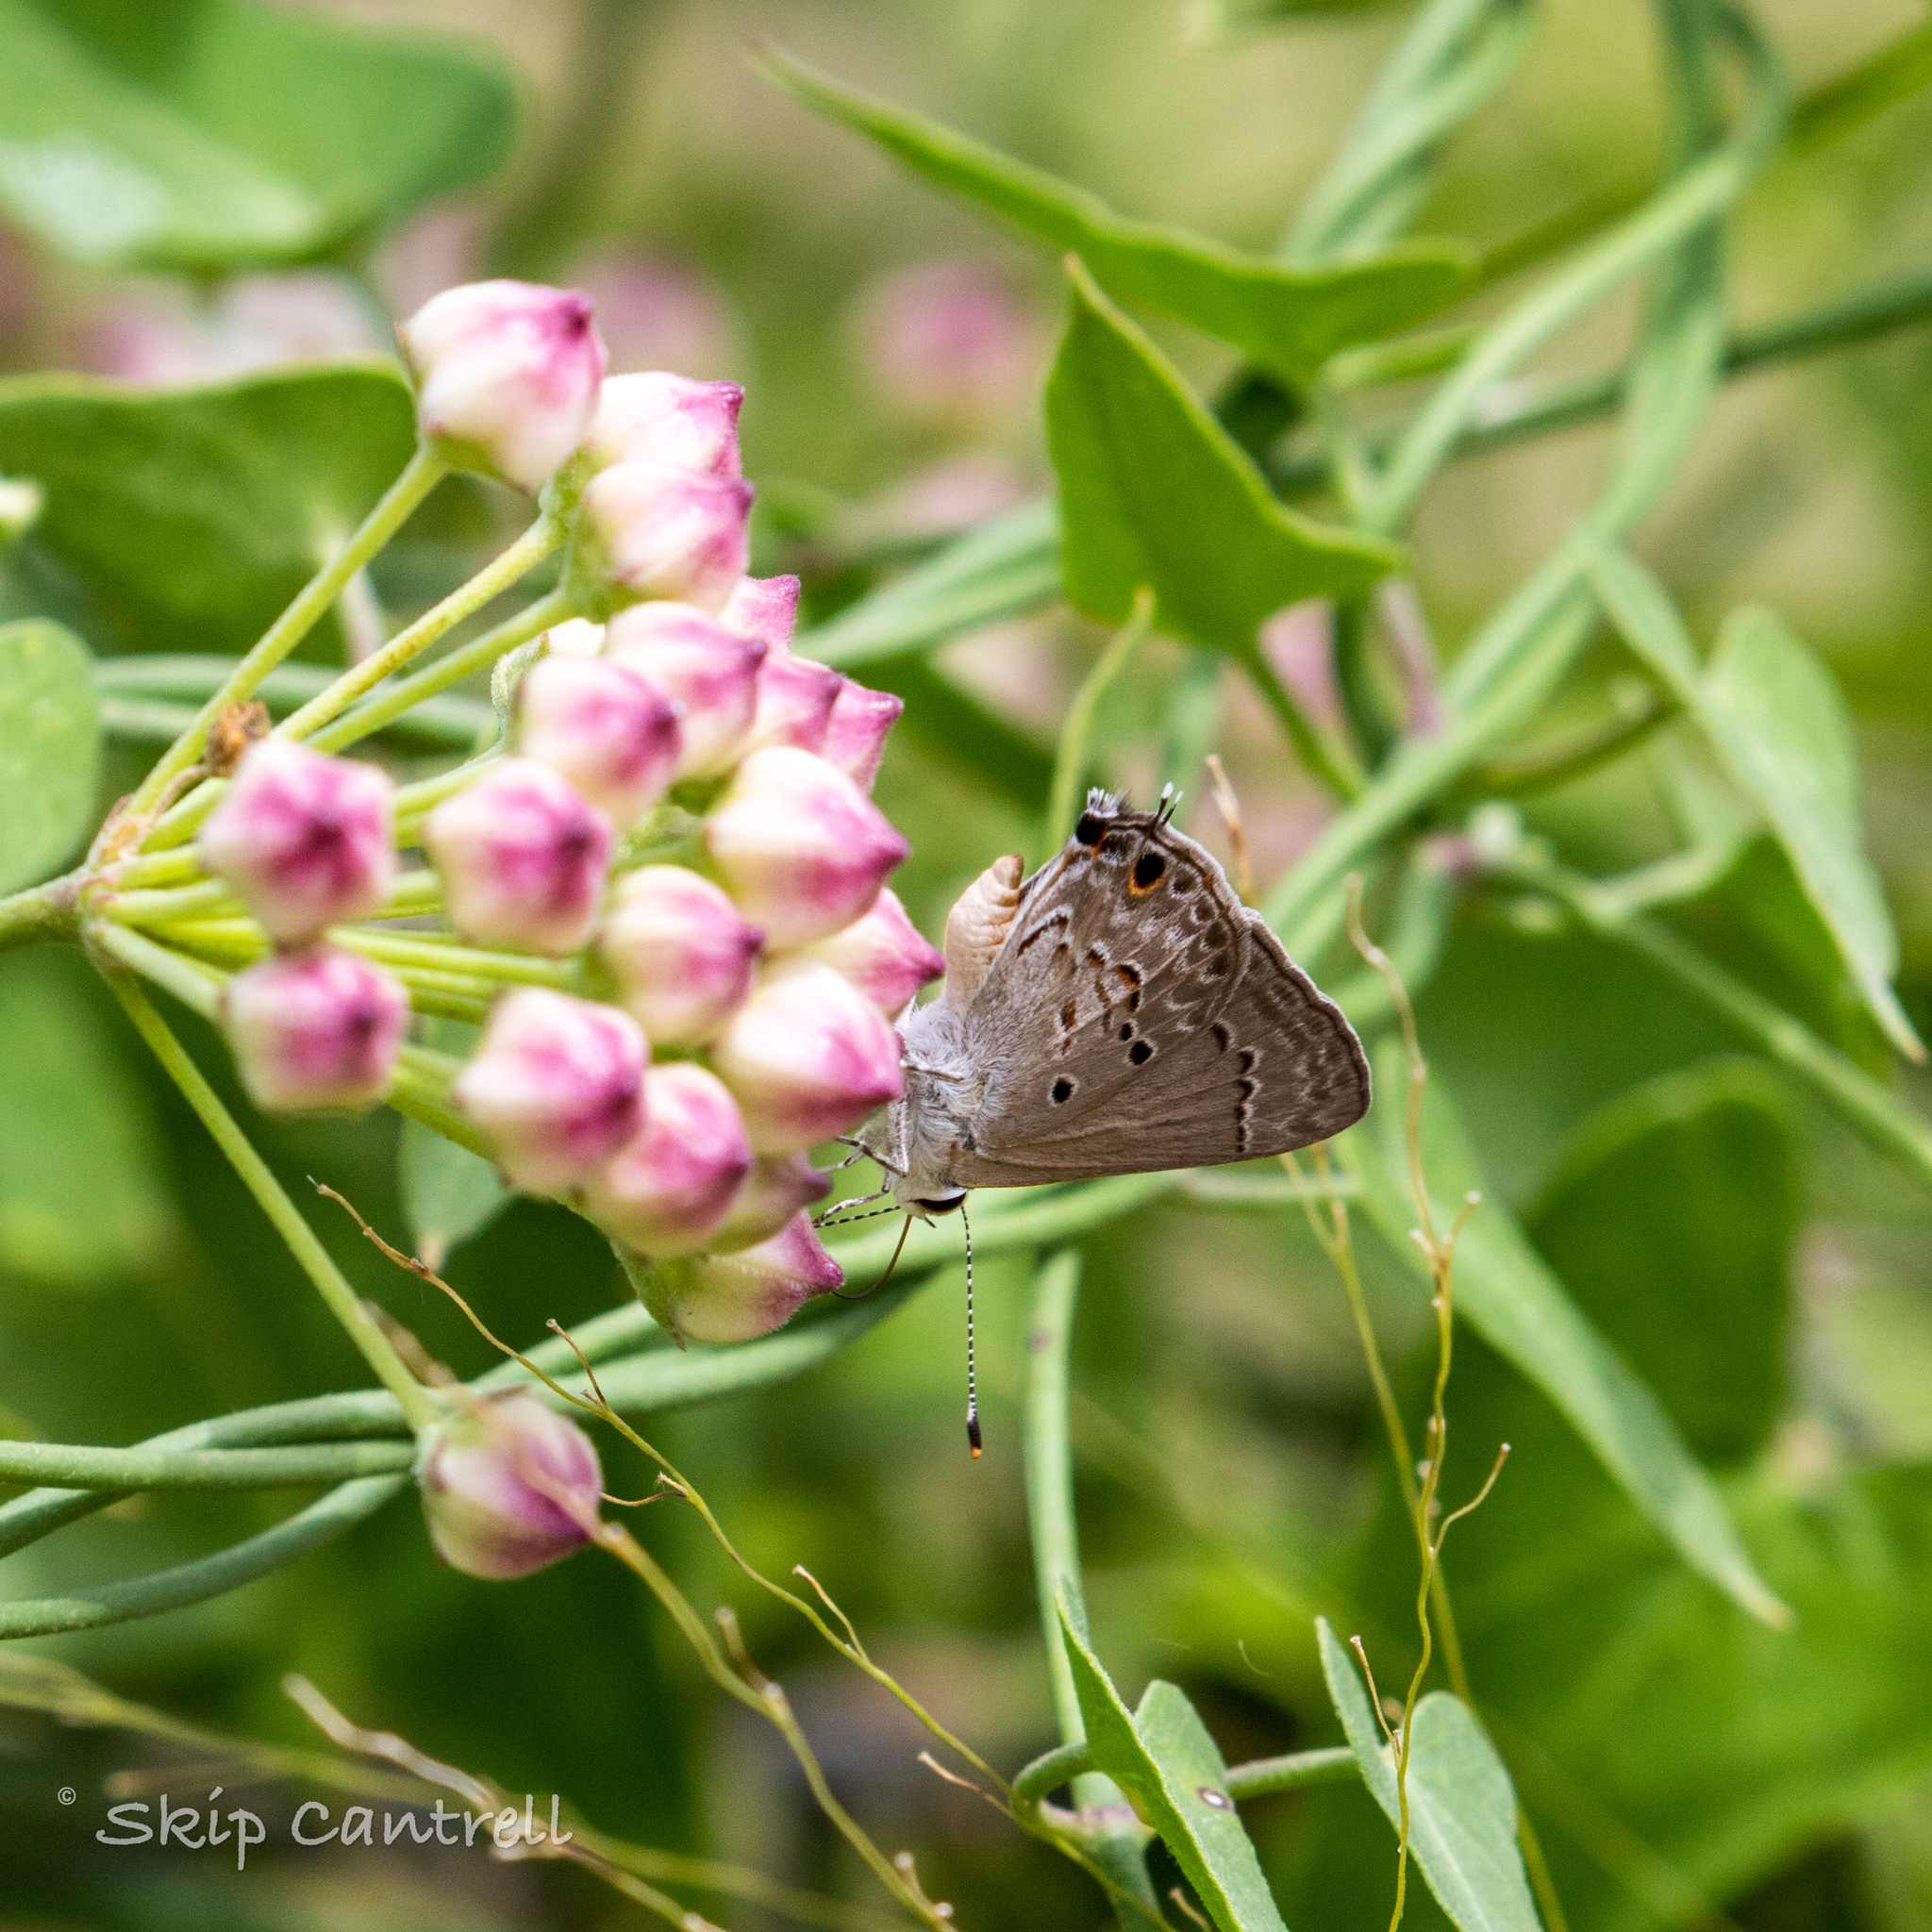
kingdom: Animalia
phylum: Arthropoda
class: Insecta
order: Lepidoptera
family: Lycaenidae
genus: Callicista
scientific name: Callicista columella
